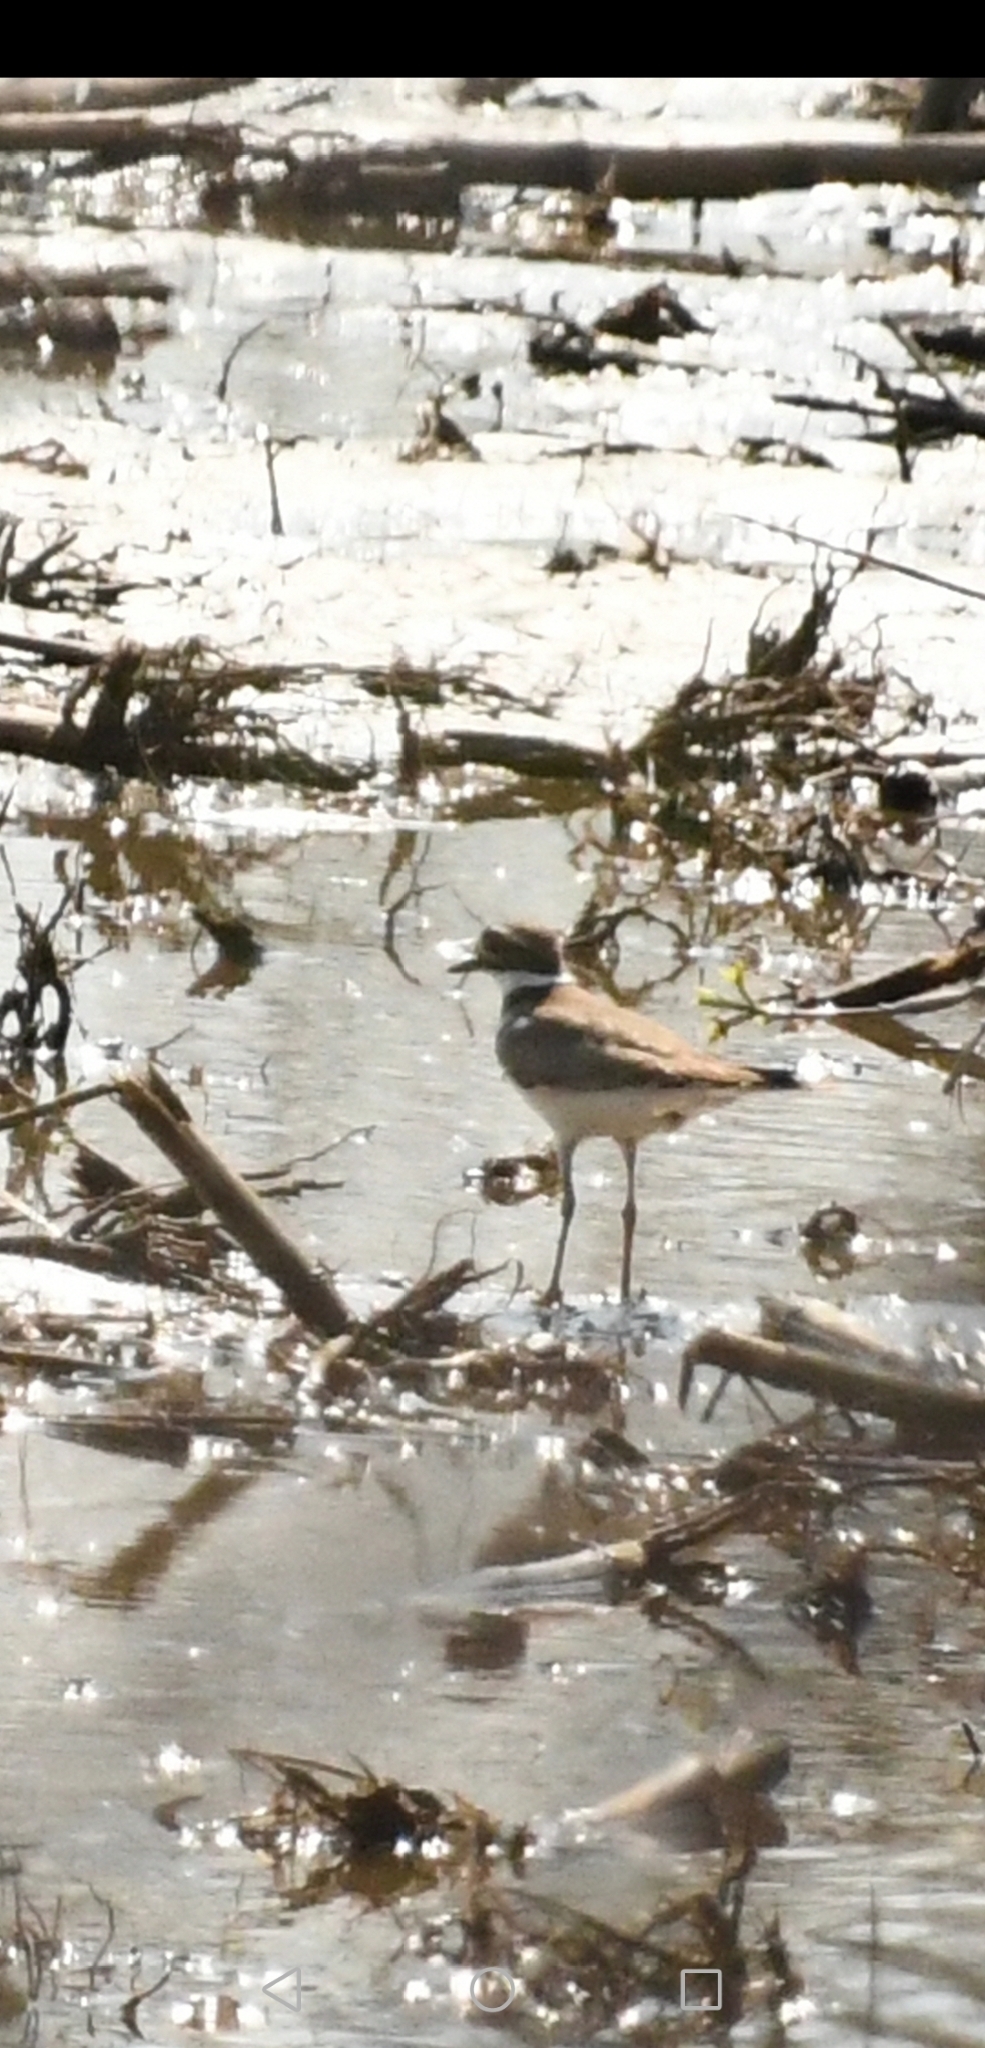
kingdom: Animalia
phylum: Chordata
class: Aves
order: Charadriiformes
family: Charadriidae
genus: Charadrius
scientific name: Charadrius vociferus
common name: Killdeer
